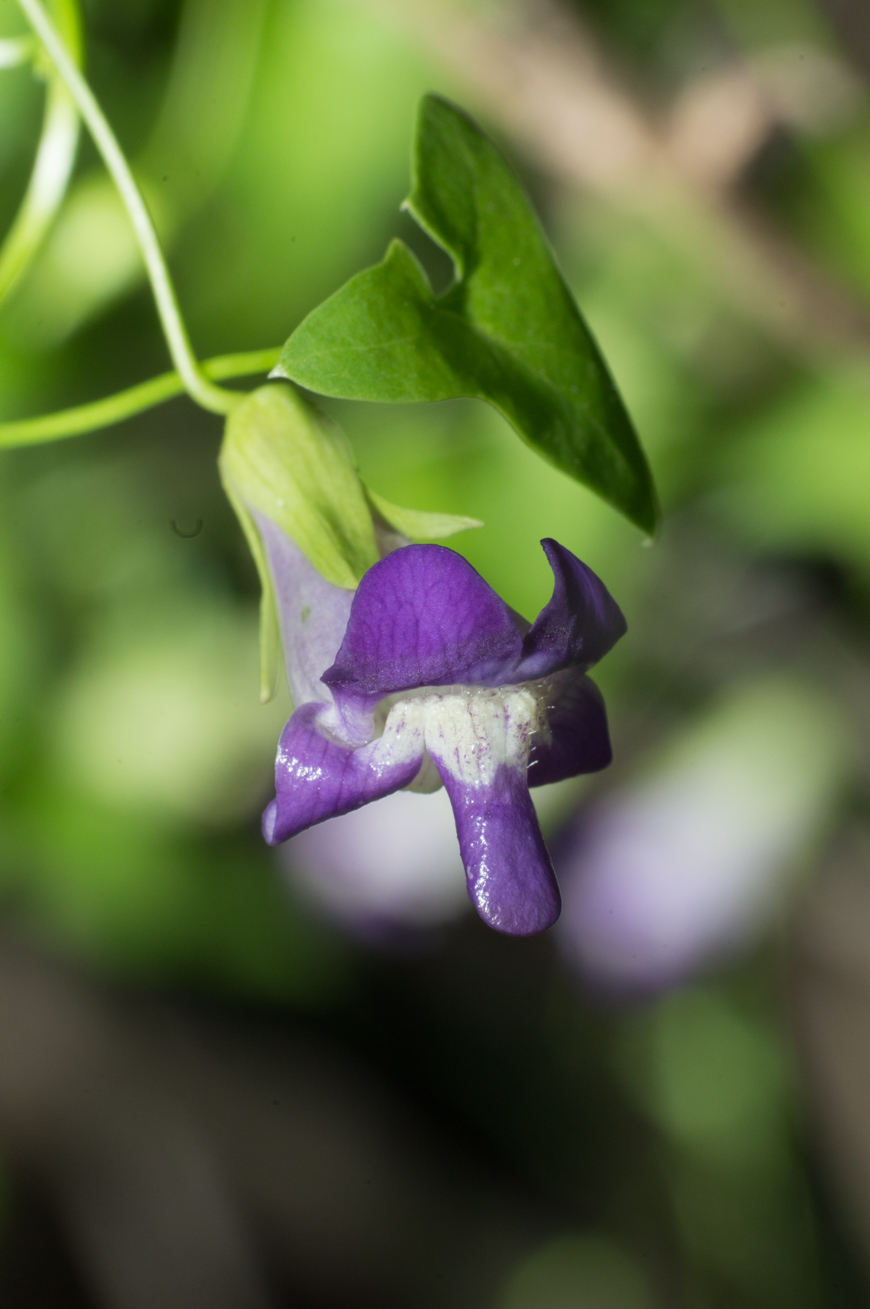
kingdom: Plantae
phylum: Tracheophyta
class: Magnoliopsida
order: Lamiales
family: Plantaginaceae
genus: Maurandella
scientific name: Maurandella antirrhiniflora
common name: Violet twining-snapdragon
